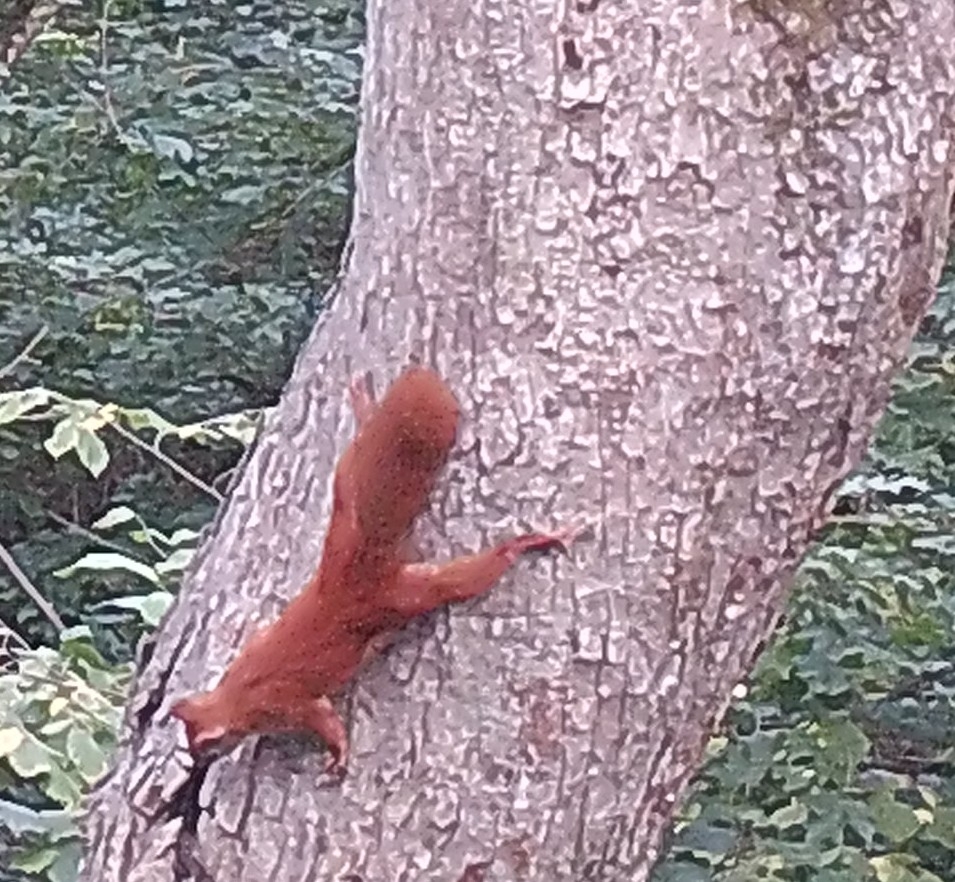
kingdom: Animalia
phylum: Chordata
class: Mammalia
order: Rodentia
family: Sciuridae
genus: Sciurus
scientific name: Sciurus vulgaris
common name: Eurasian red squirrel
